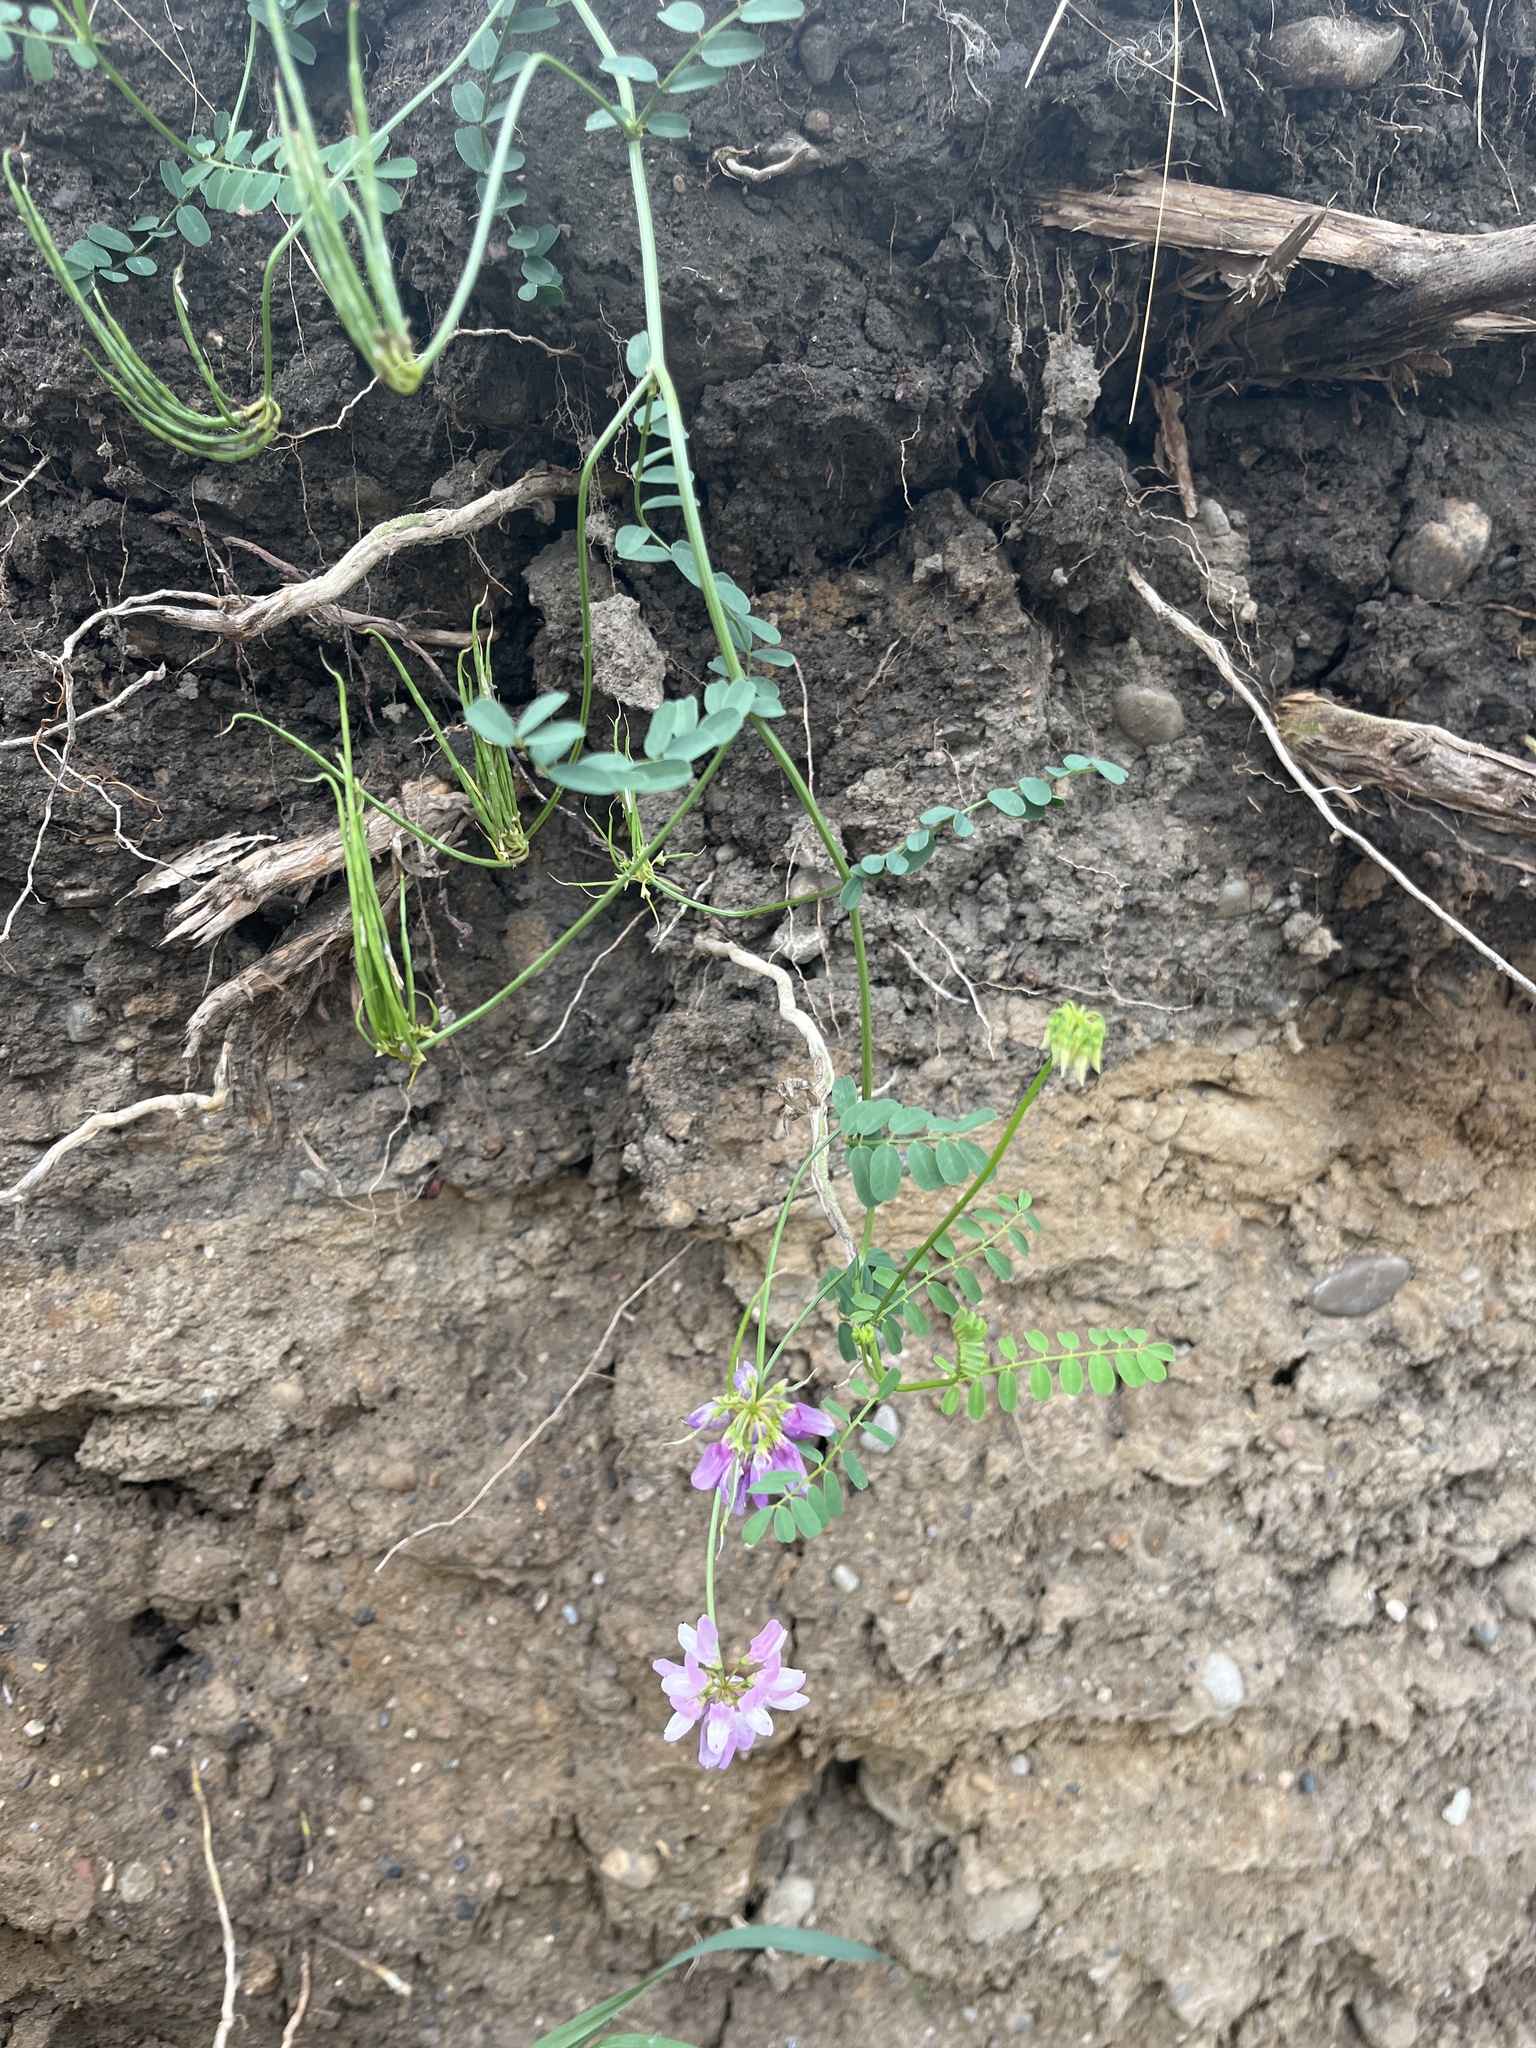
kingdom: Plantae
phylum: Tracheophyta
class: Magnoliopsida
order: Fabales
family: Fabaceae
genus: Coronilla
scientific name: Coronilla varia
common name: Crownvetch
